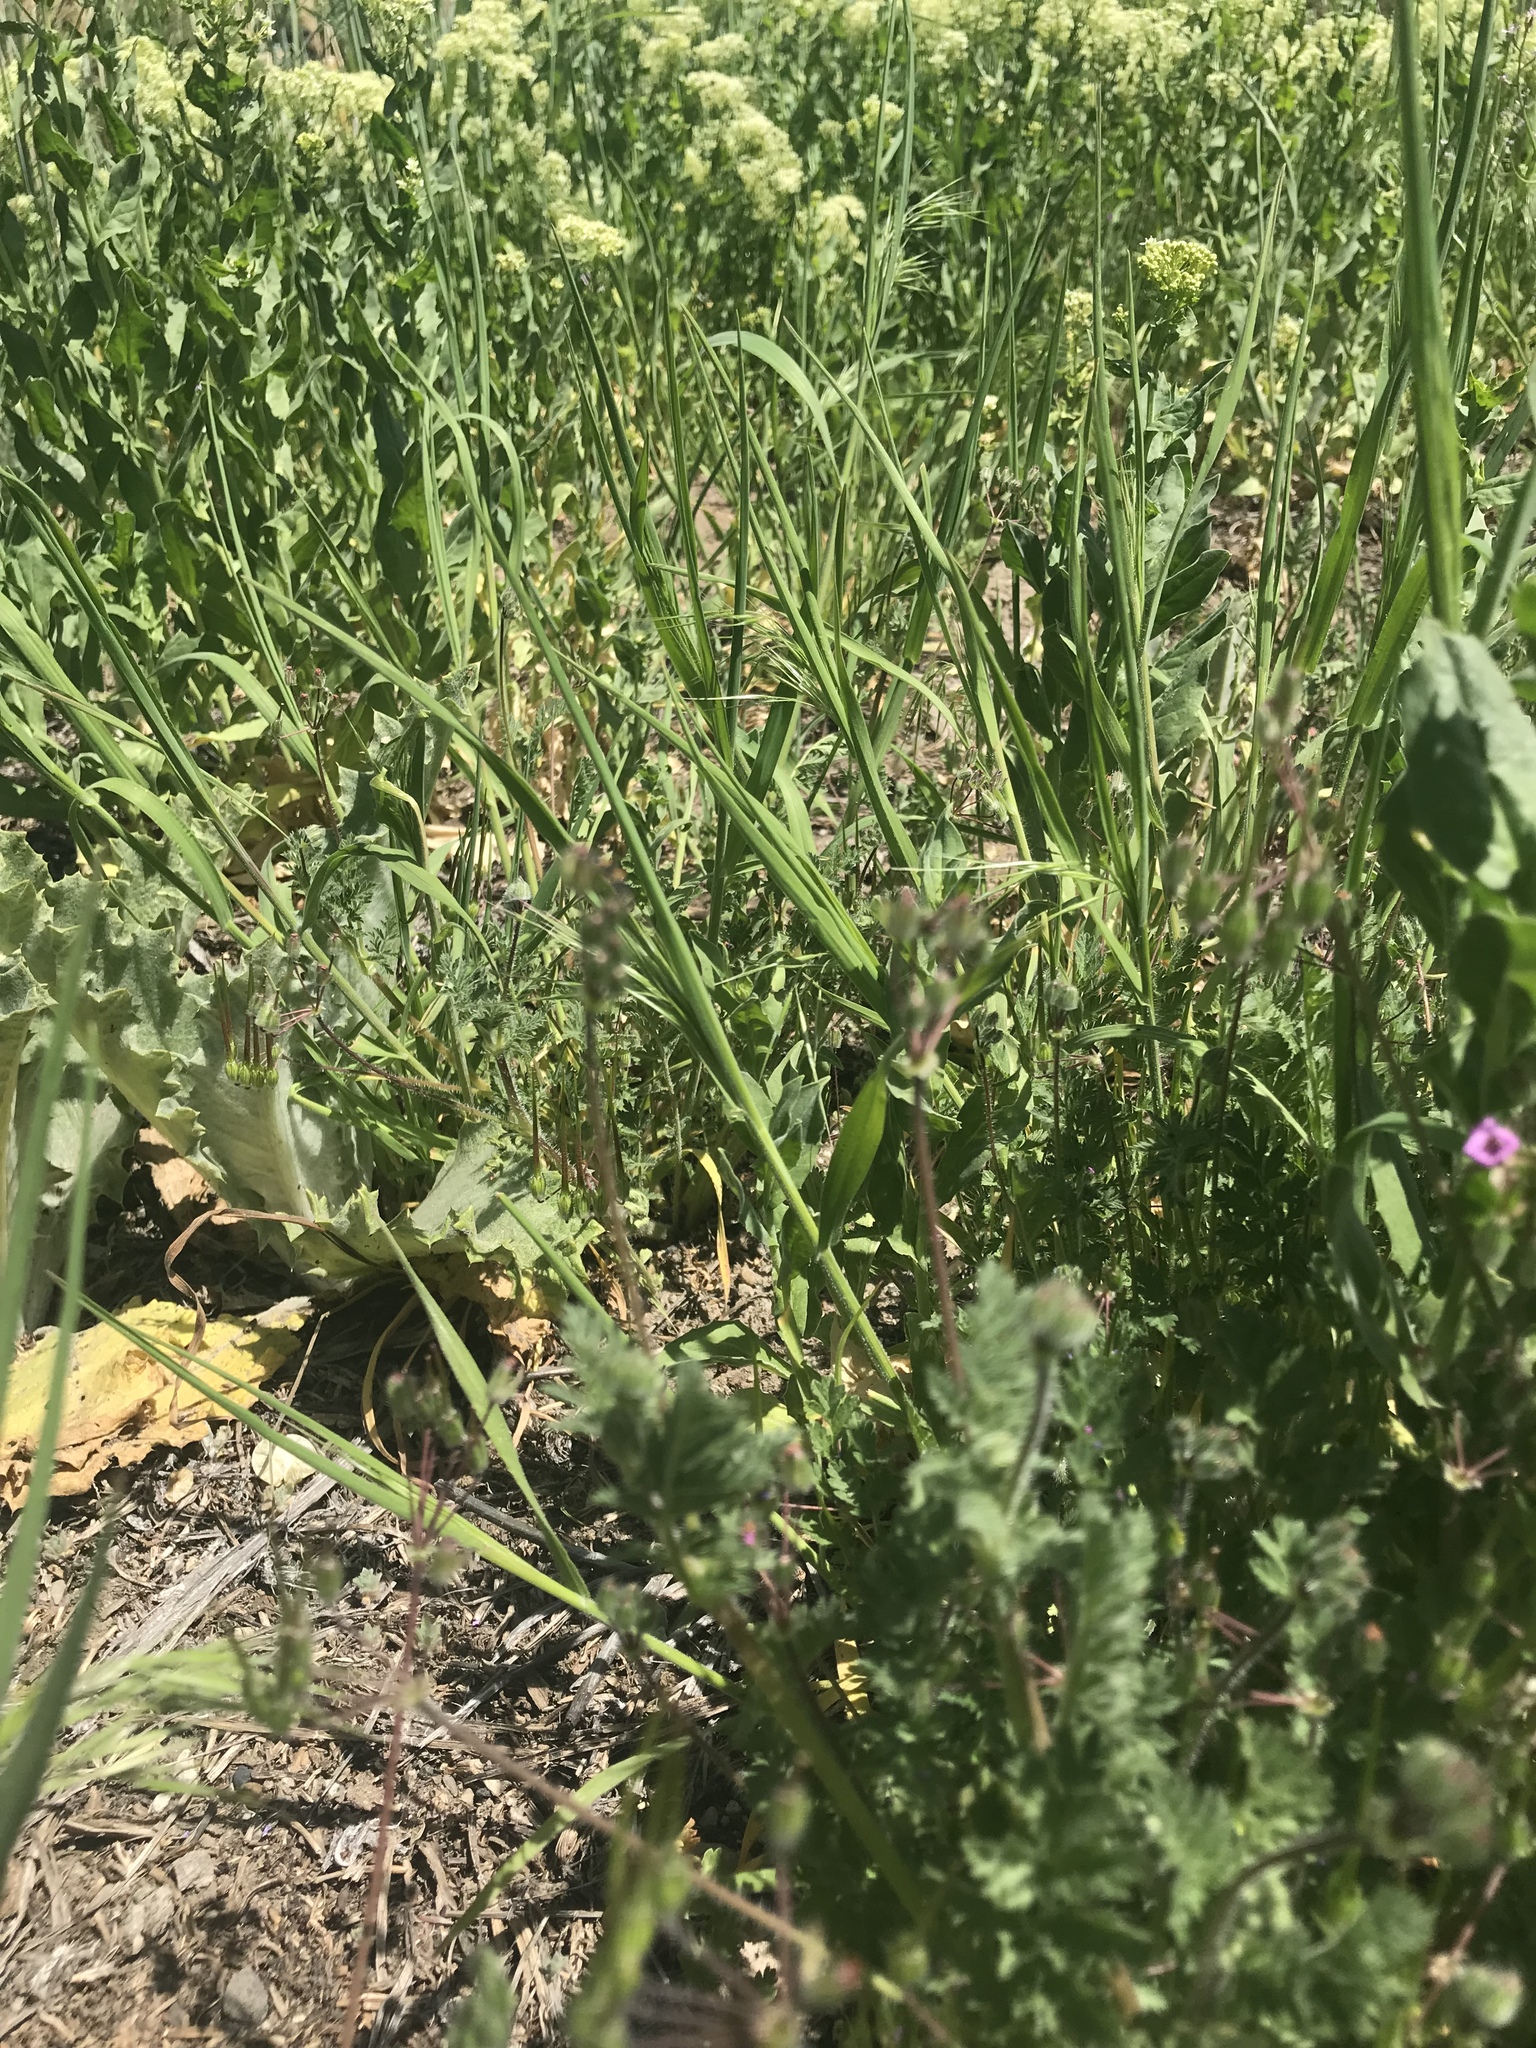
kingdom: Plantae
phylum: Tracheophyta
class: Magnoliopsida
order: Geraniales
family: Geraniaceae
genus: Erodium
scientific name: Erodium cicutarium
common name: Common stork's-bill
